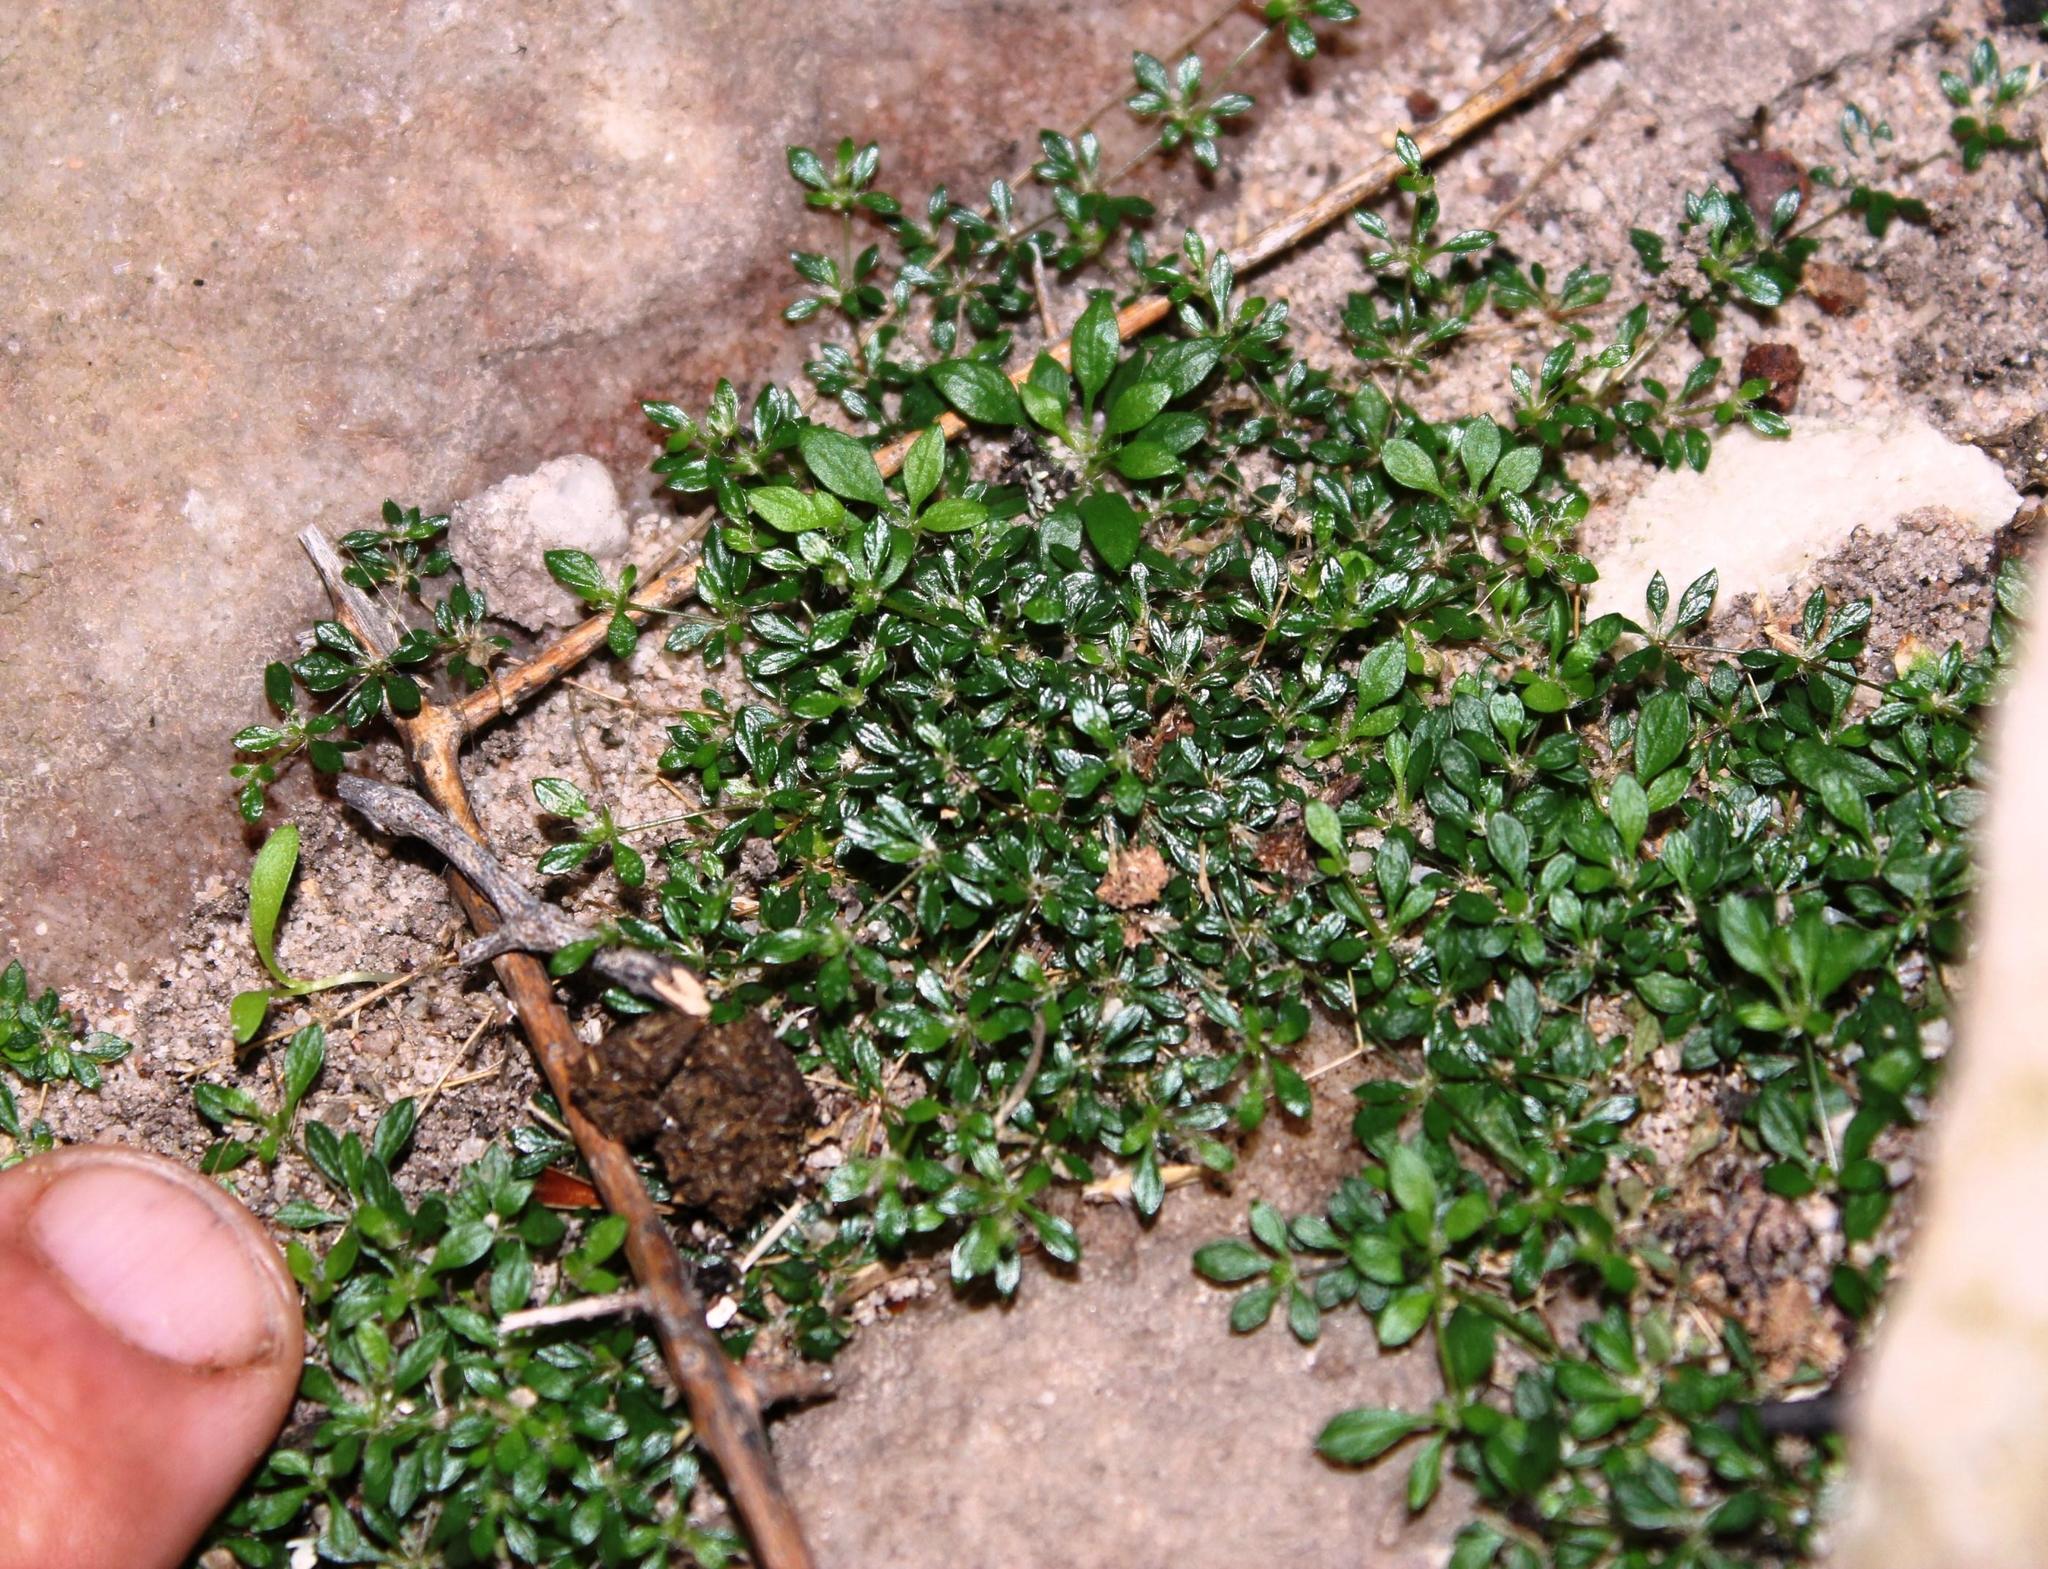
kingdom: Plantae
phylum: Tracheophyta
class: Magnoliopsida
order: Caryophyllales
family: Molluginaceae
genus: Pharnaceum
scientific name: Pharnaceum serpyllifolium
